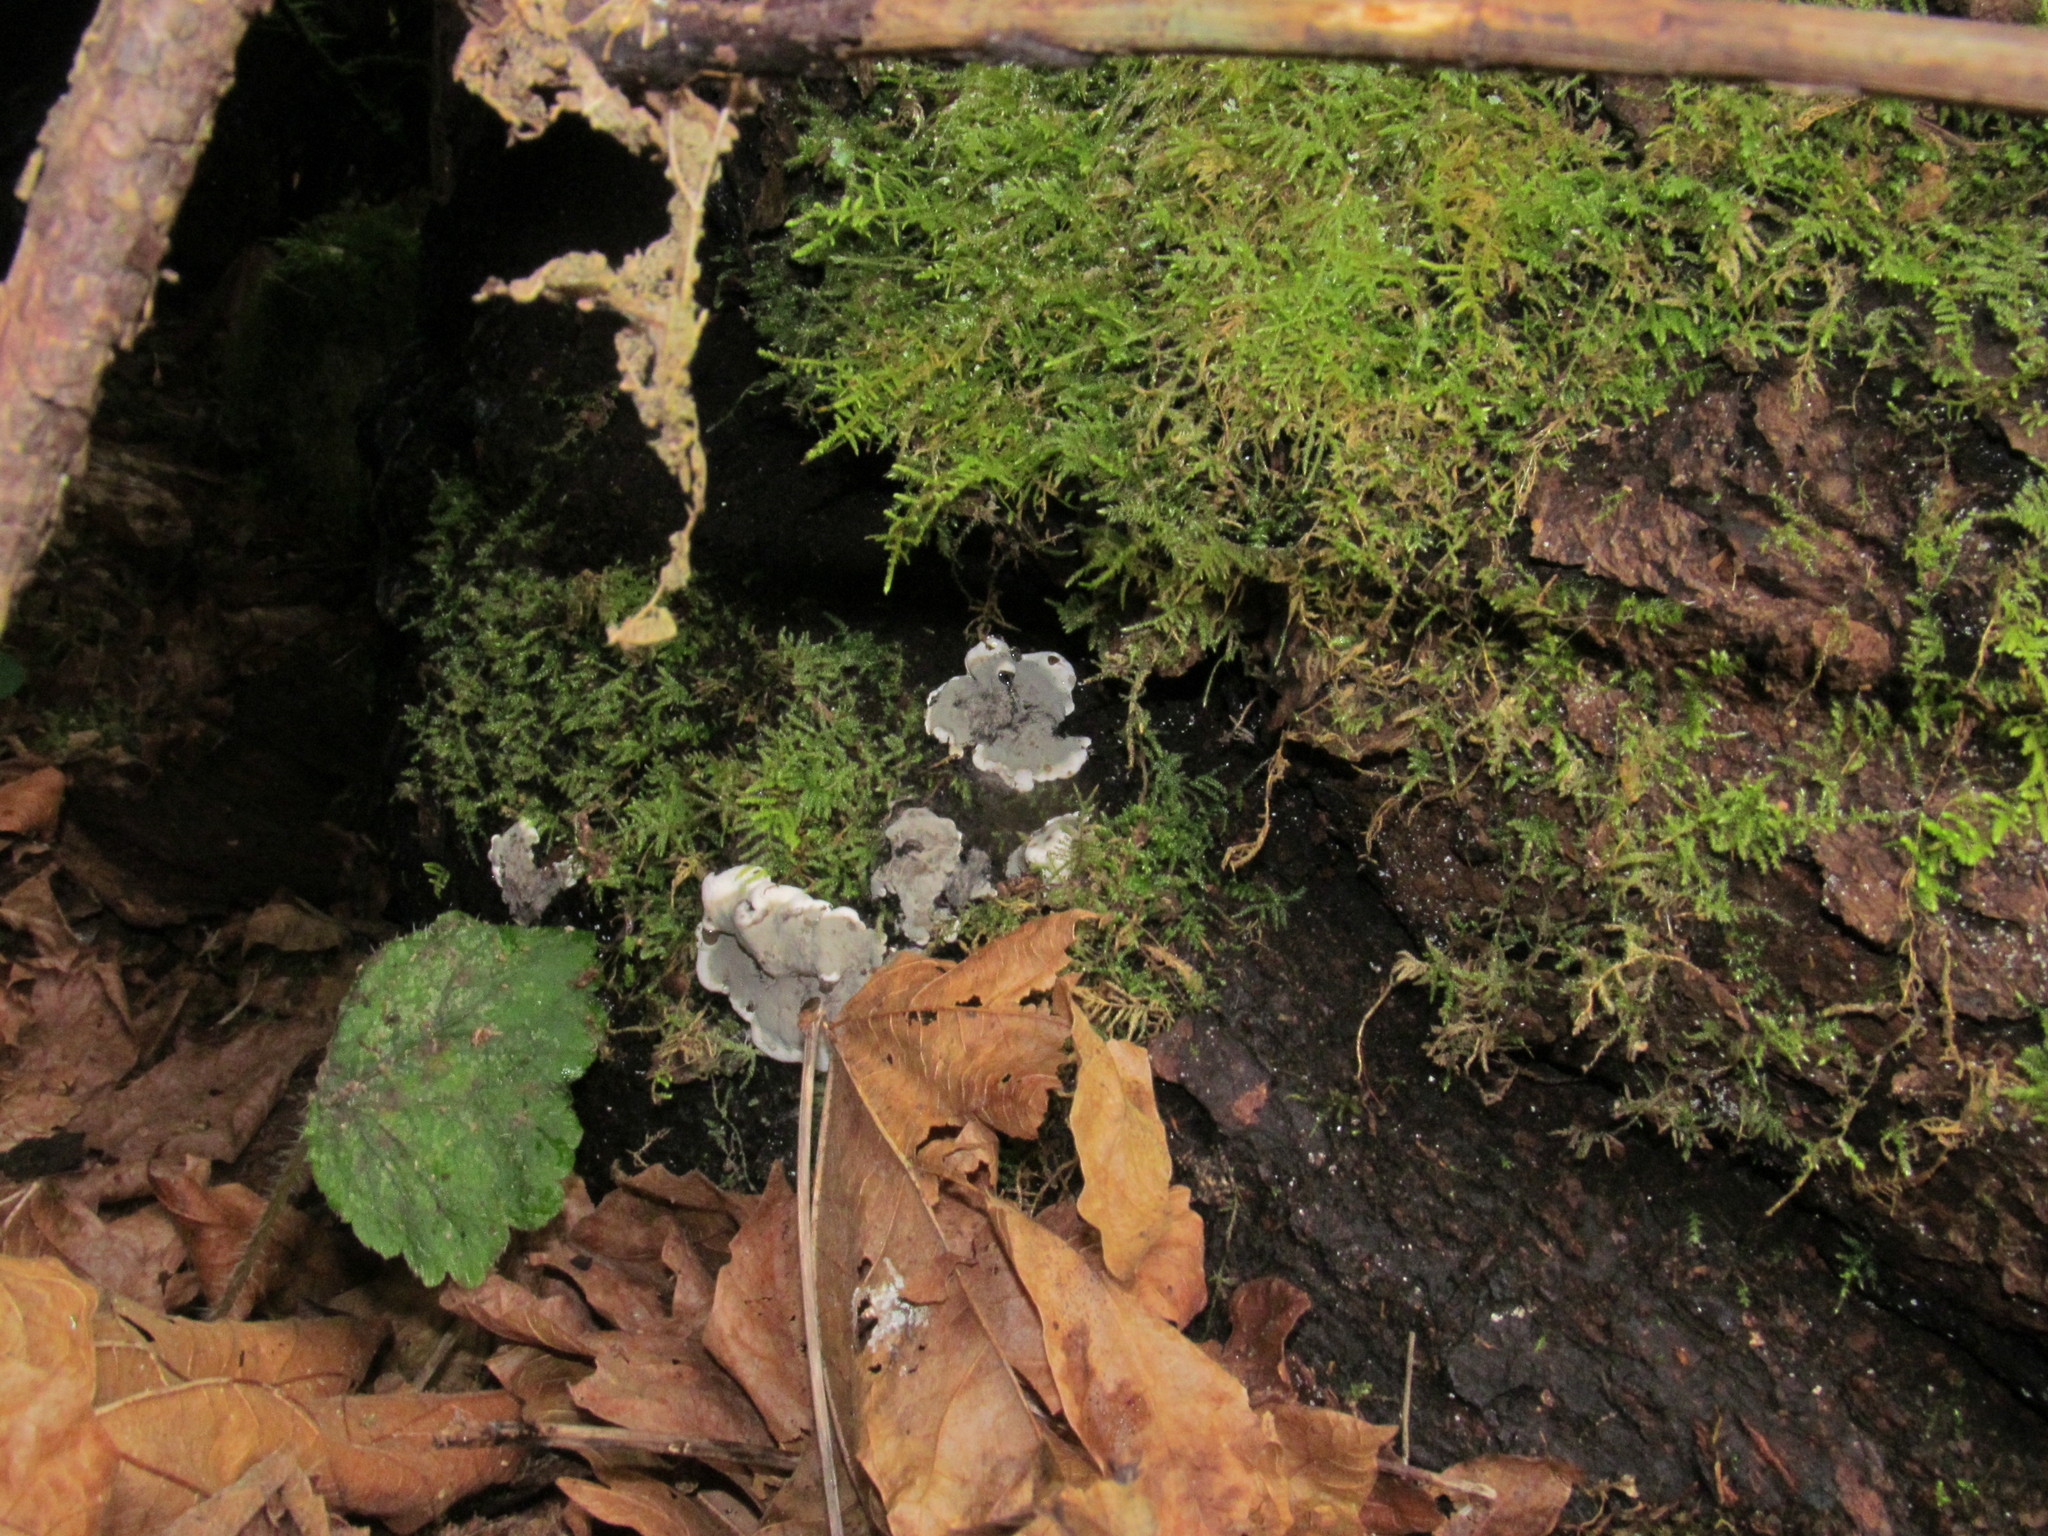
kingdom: Fungi
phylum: Ascomycota
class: Sordariomycetes
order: Xylariales
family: Xylariaceae
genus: Kretzschmaria
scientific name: Kretzschmaria deusta
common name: Brittle cinder
